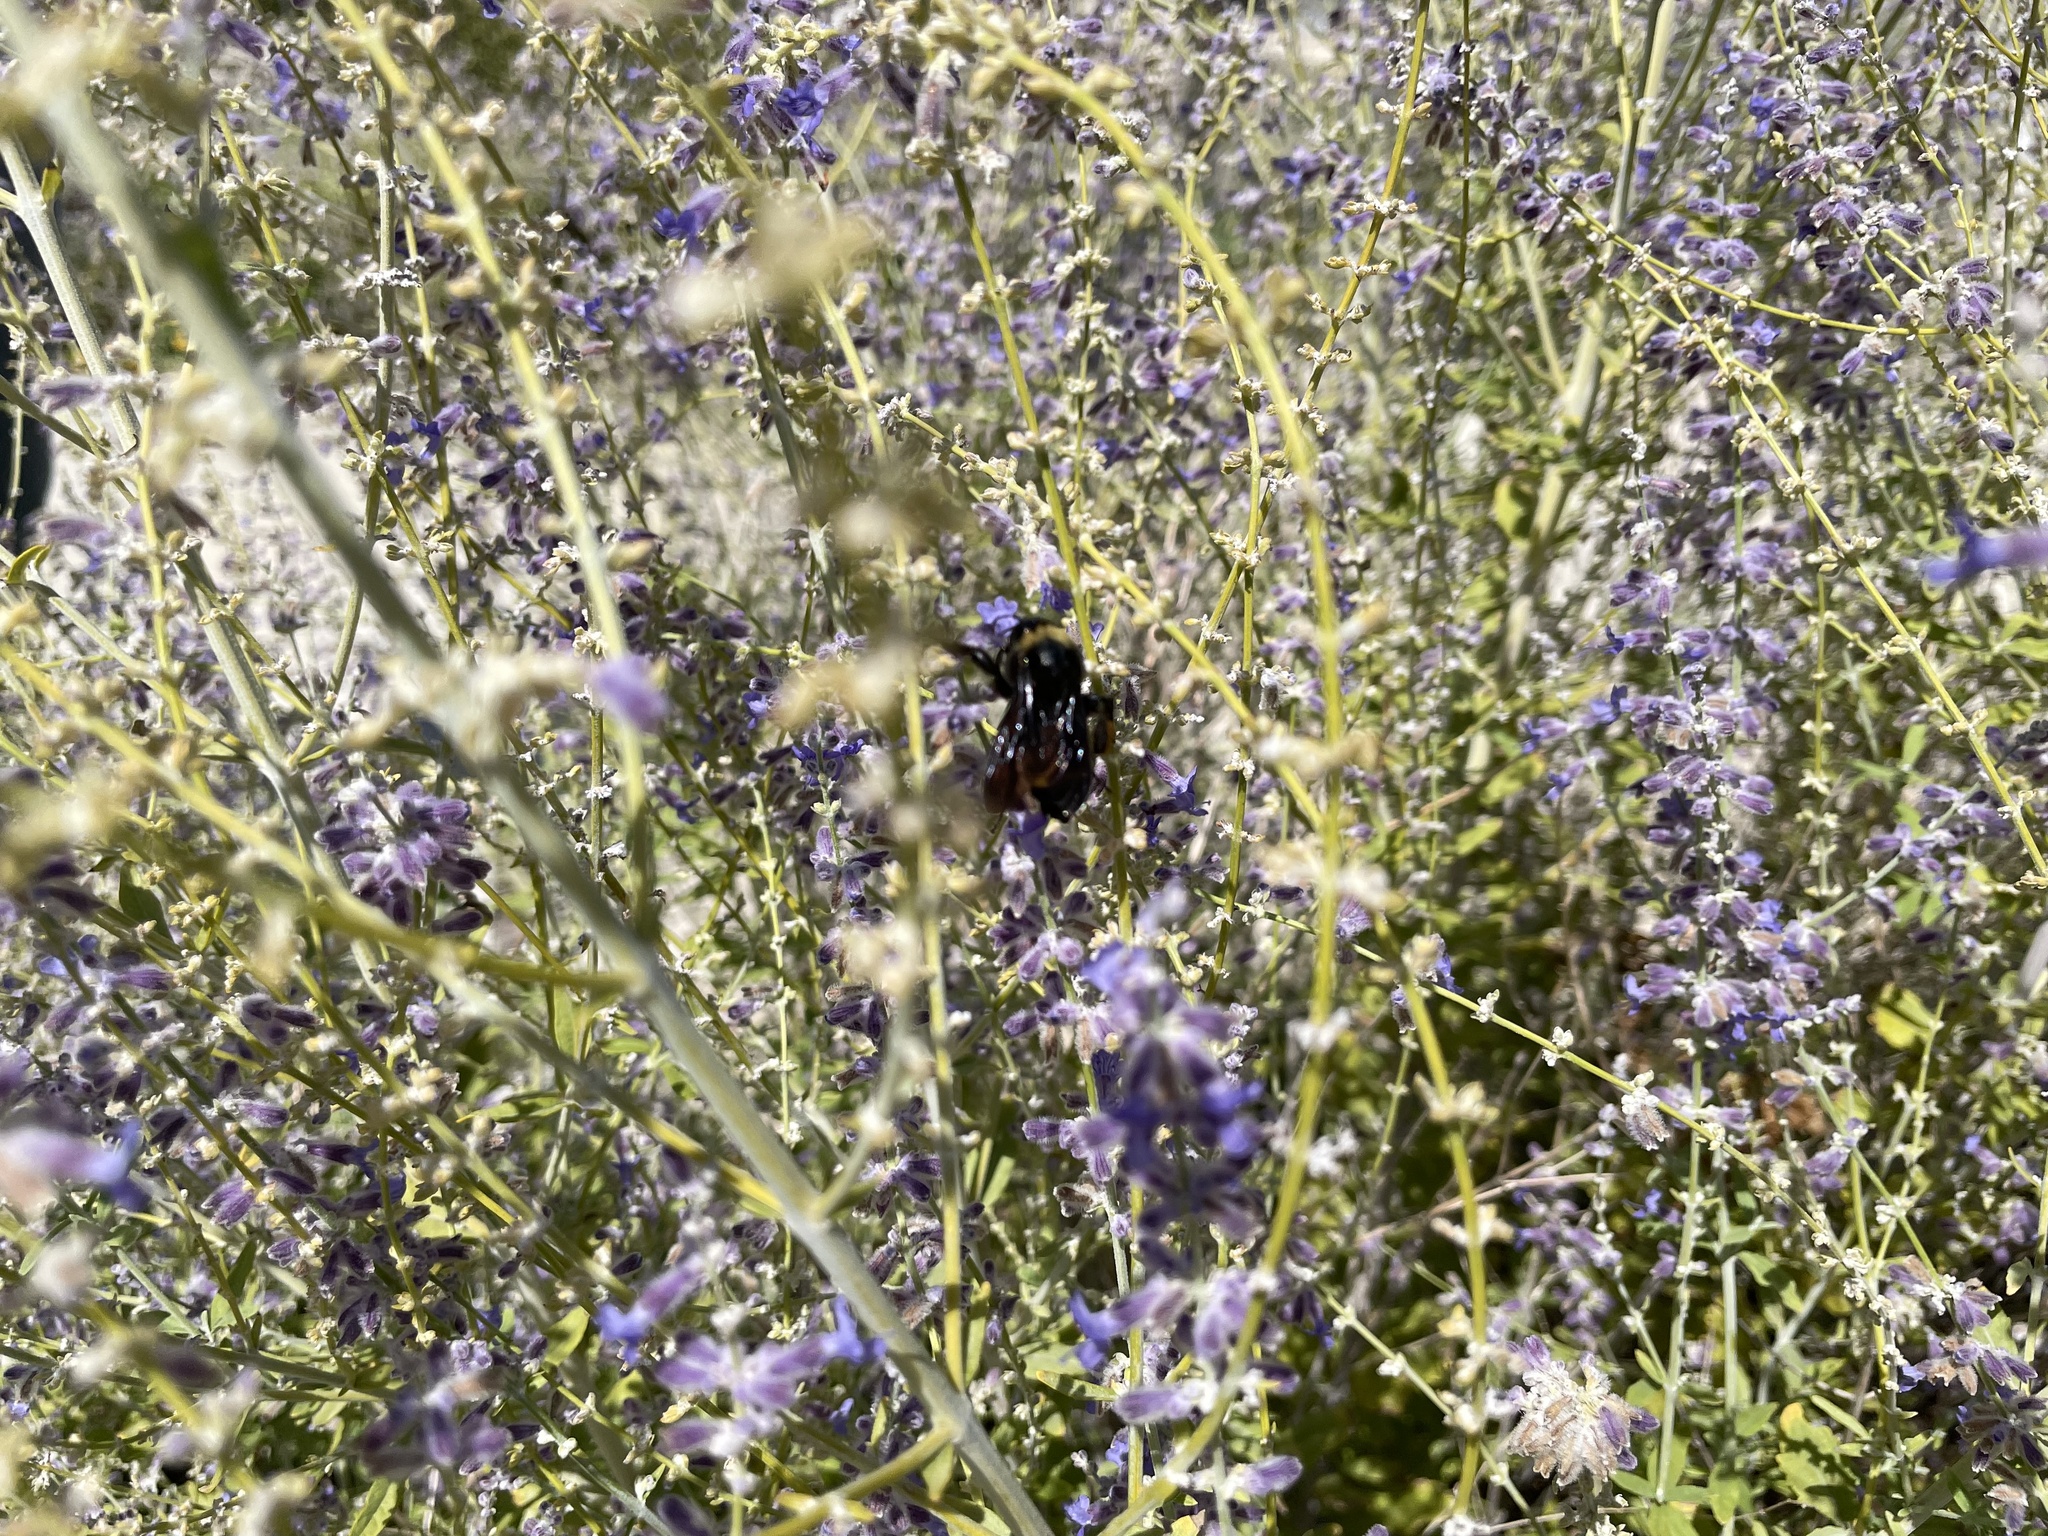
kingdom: Animalia
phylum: Arthropoda
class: Insecta
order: Hymenoptera
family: Apidae
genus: Bombus
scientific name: Bombus pensylvanicus
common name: Bumble bee
